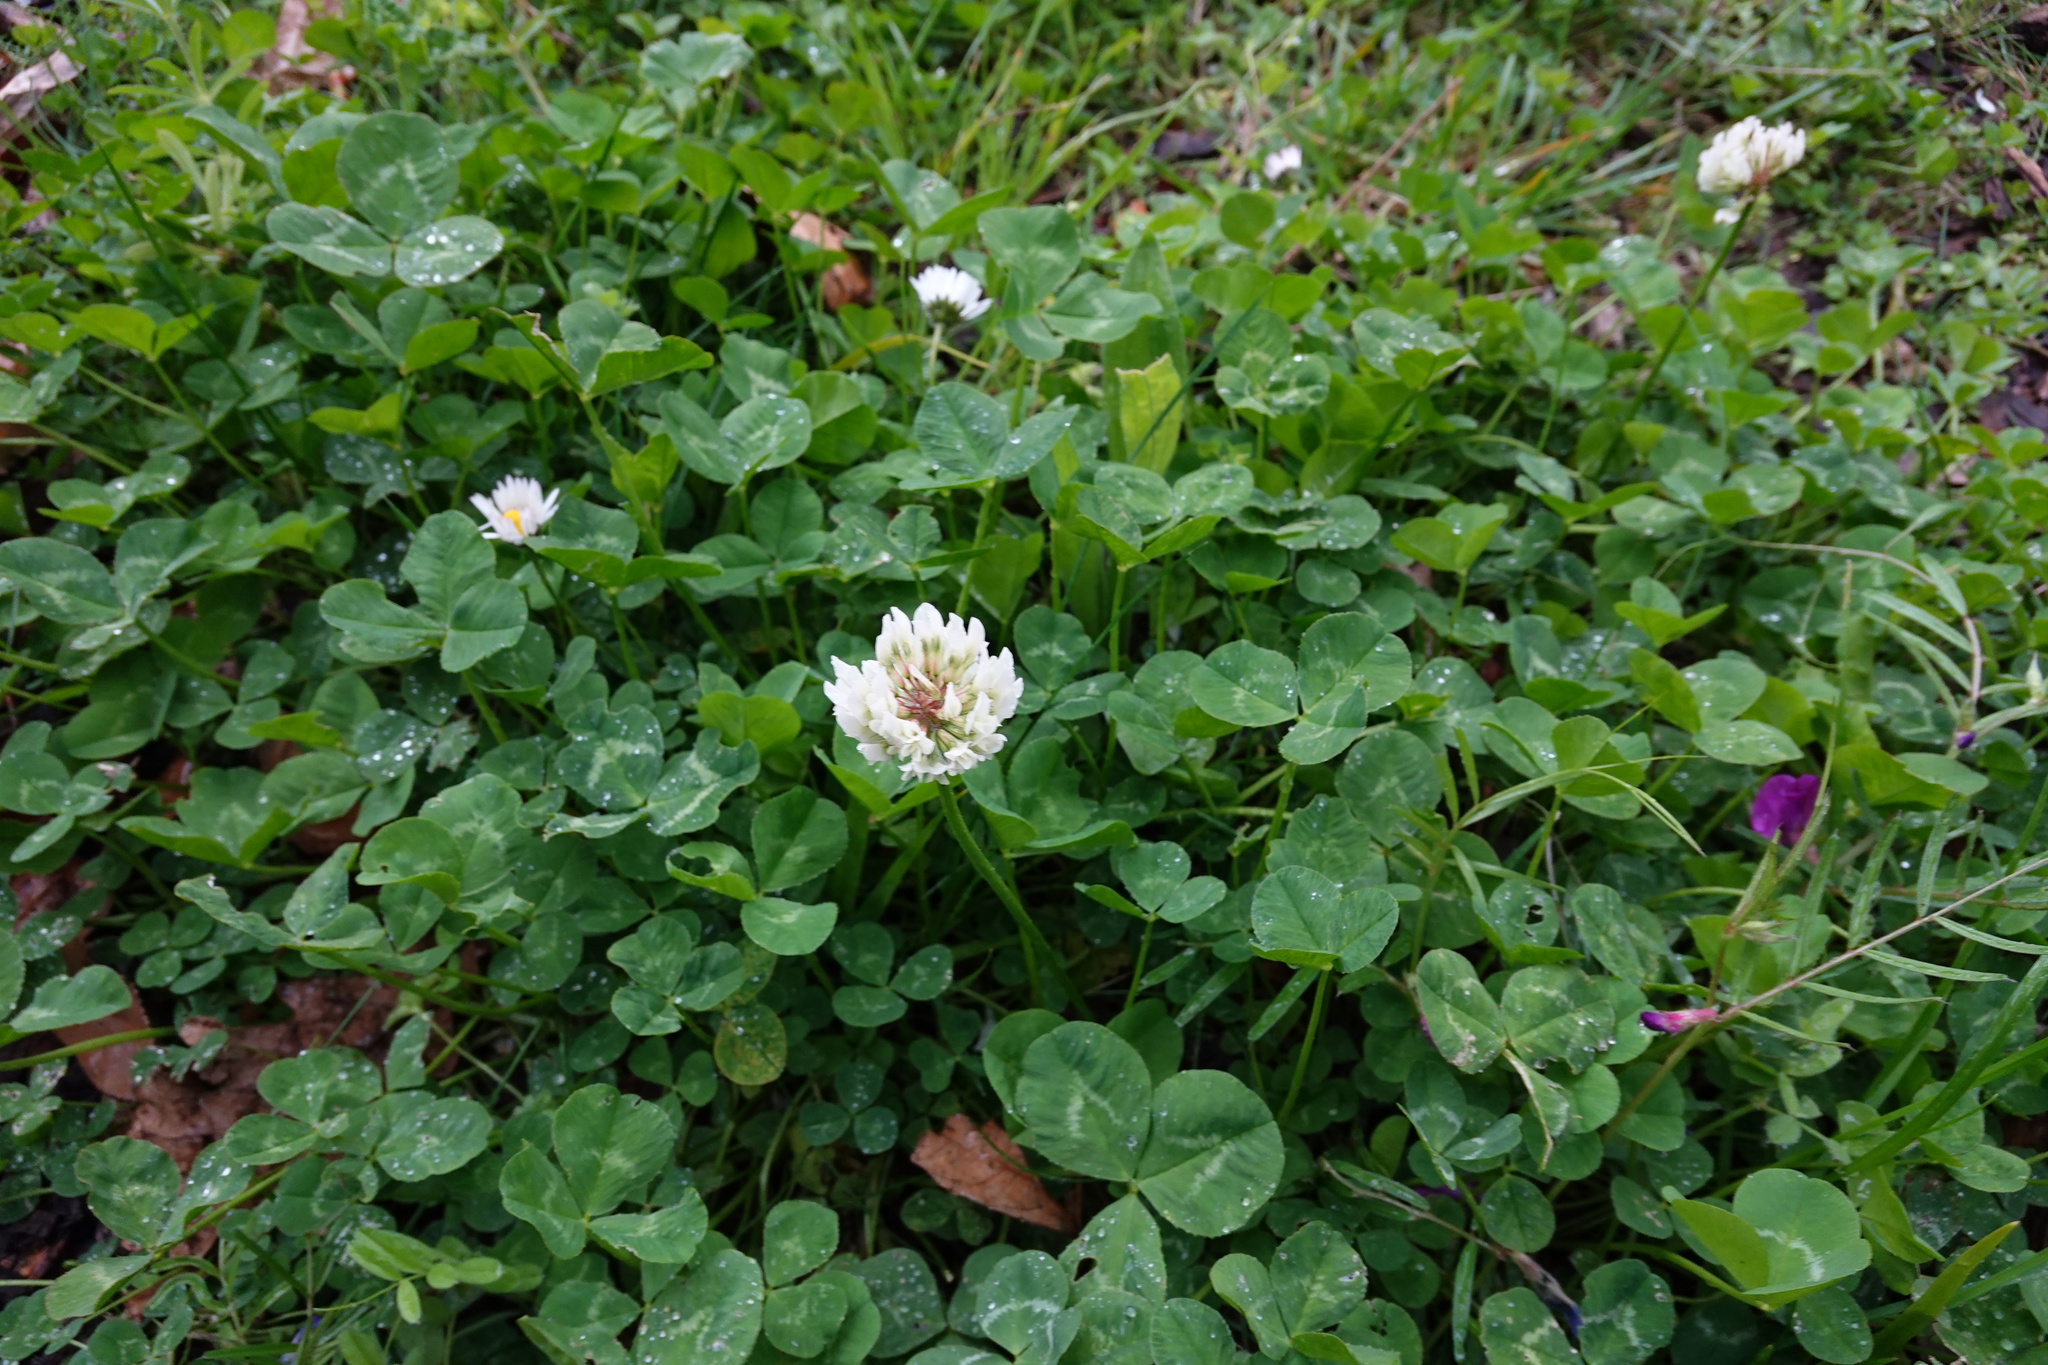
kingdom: Plantae
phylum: Tracheophyta
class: Magnoliopsida
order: Fabales
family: Fabaceae
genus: Trifolium
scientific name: Trifolium repens
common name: White clover
